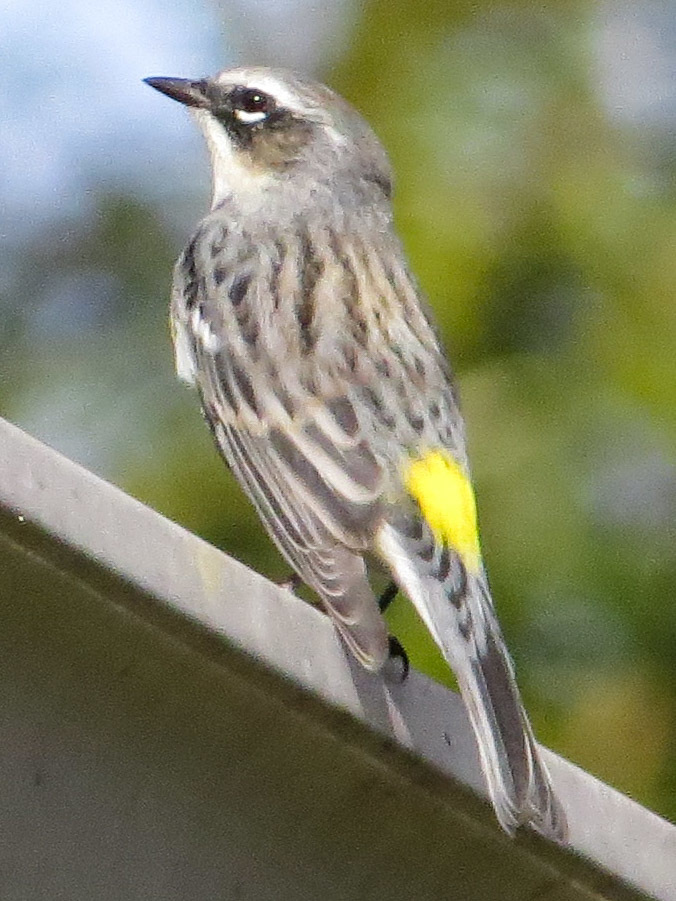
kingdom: Animalia
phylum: Chordata
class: Aves
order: Passeriformes
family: Parulidae
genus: Setophaga
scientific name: Setophaga coronata
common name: Myrtle warbler
